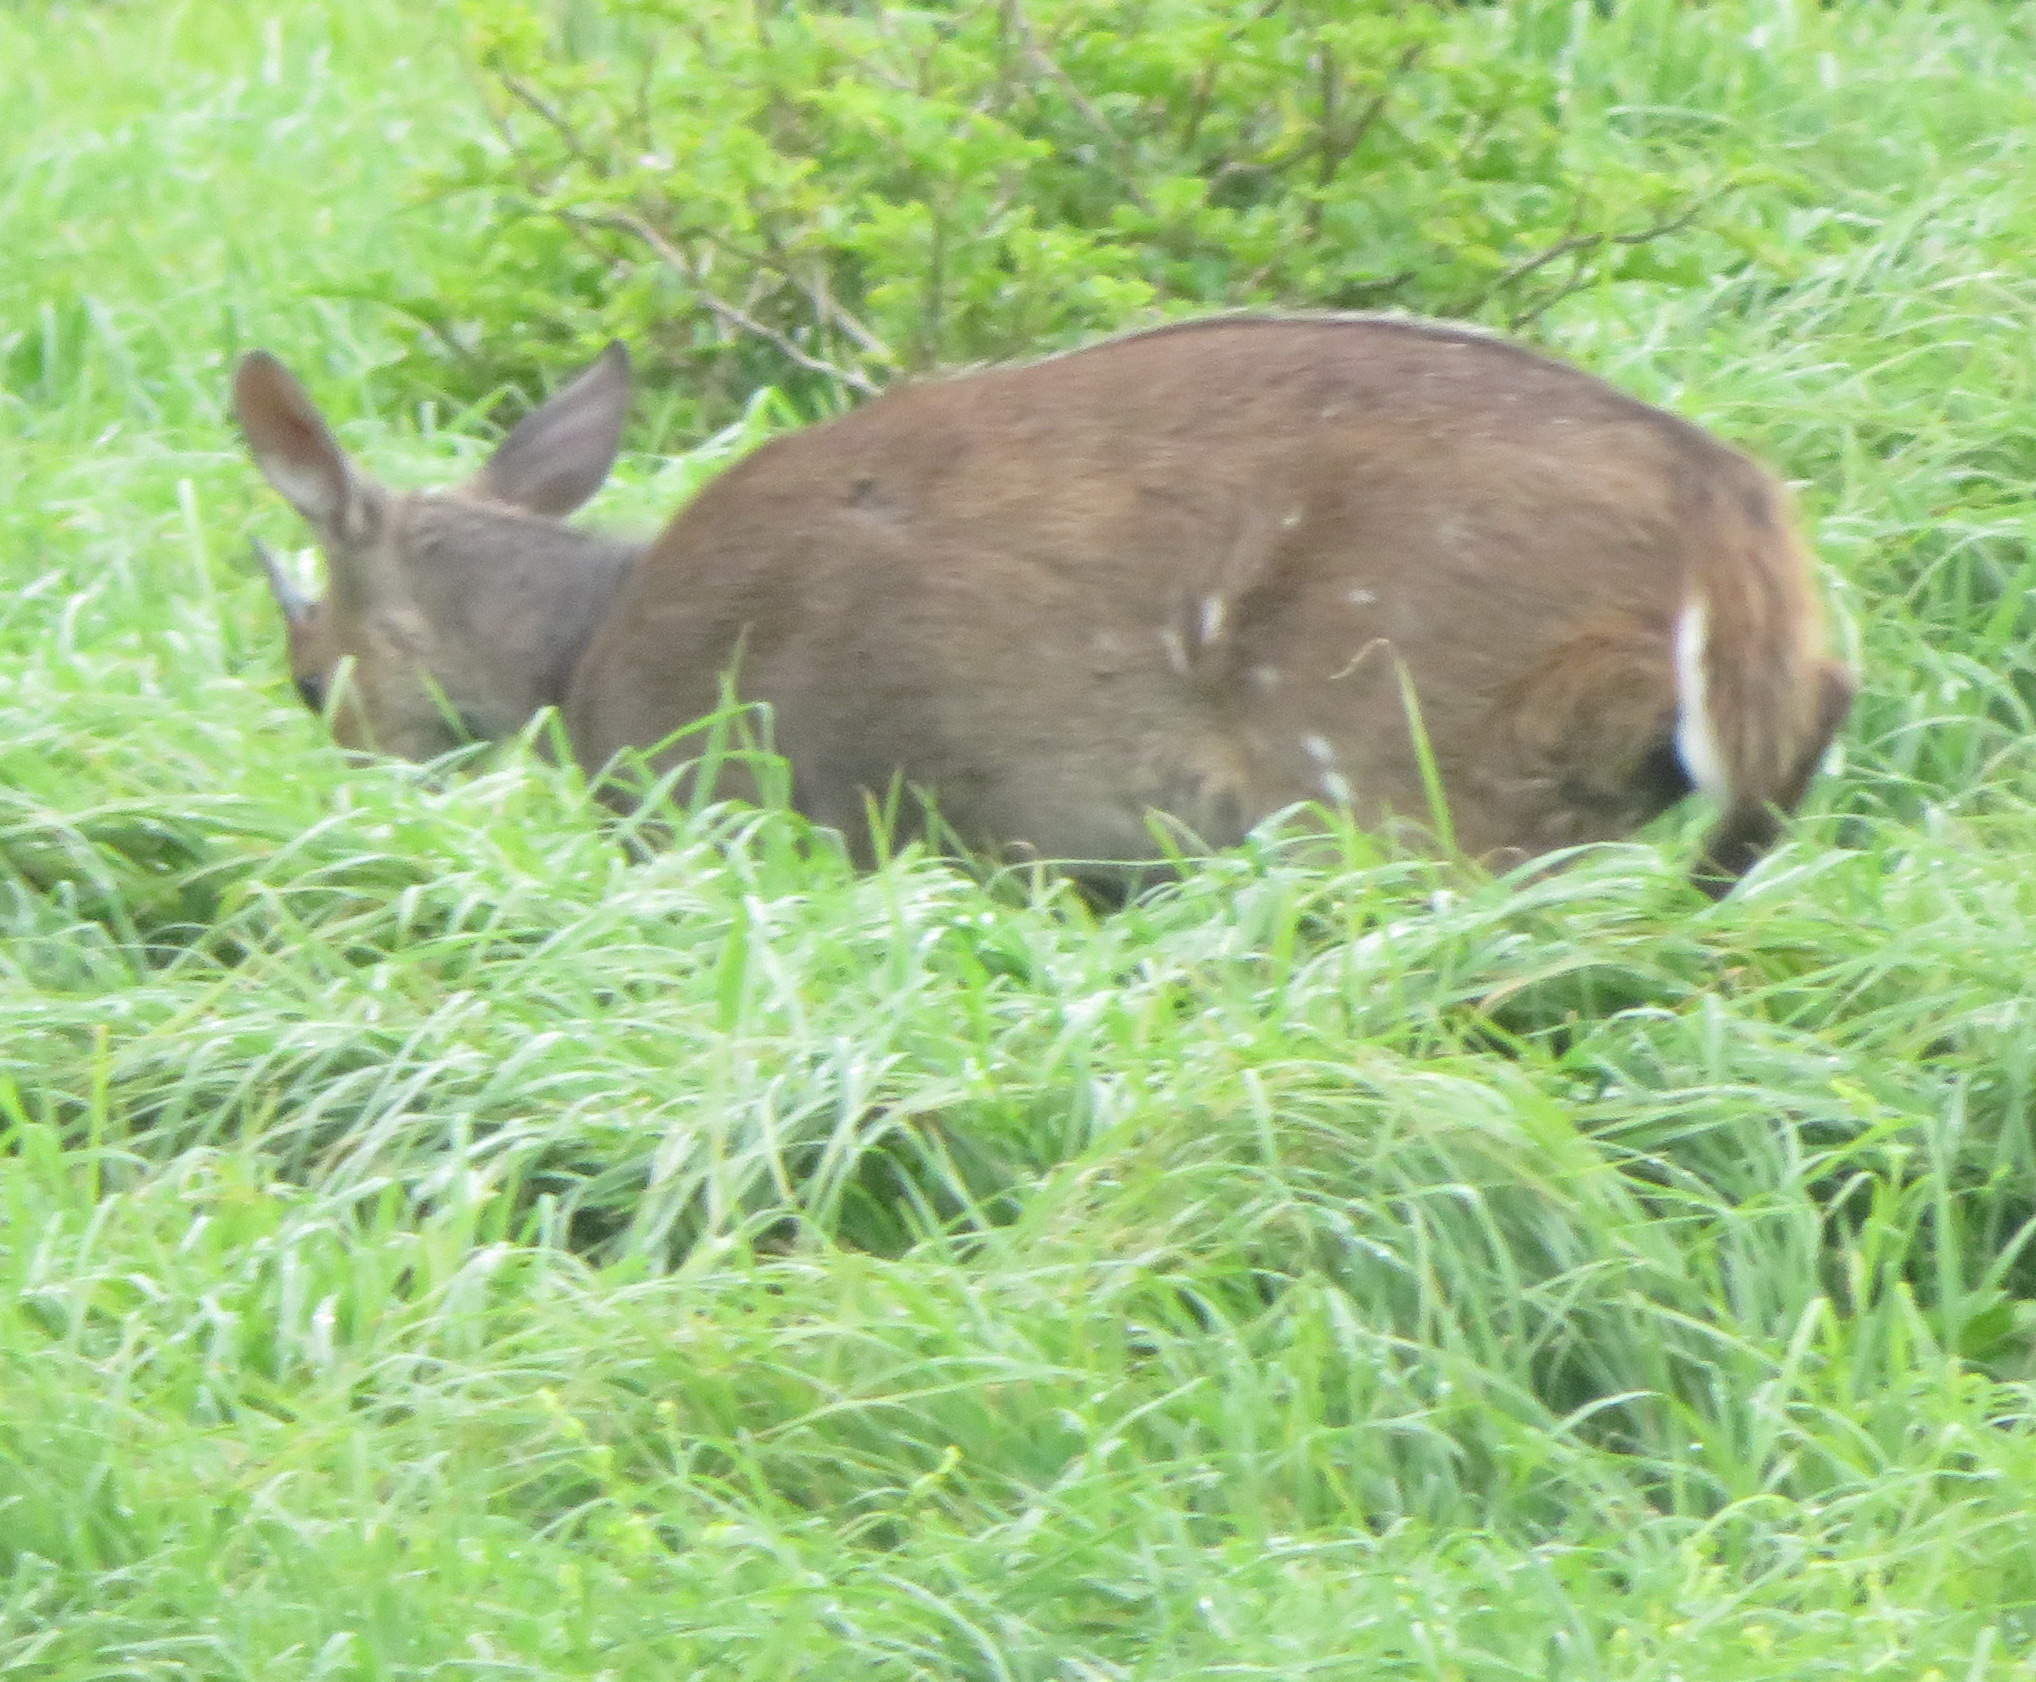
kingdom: Animalia
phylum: Chordata
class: Mammalia
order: Artiodactyla
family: Bovidae
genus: Tragelaphus
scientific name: Tragelaphus scriptus
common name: Bushbuck
